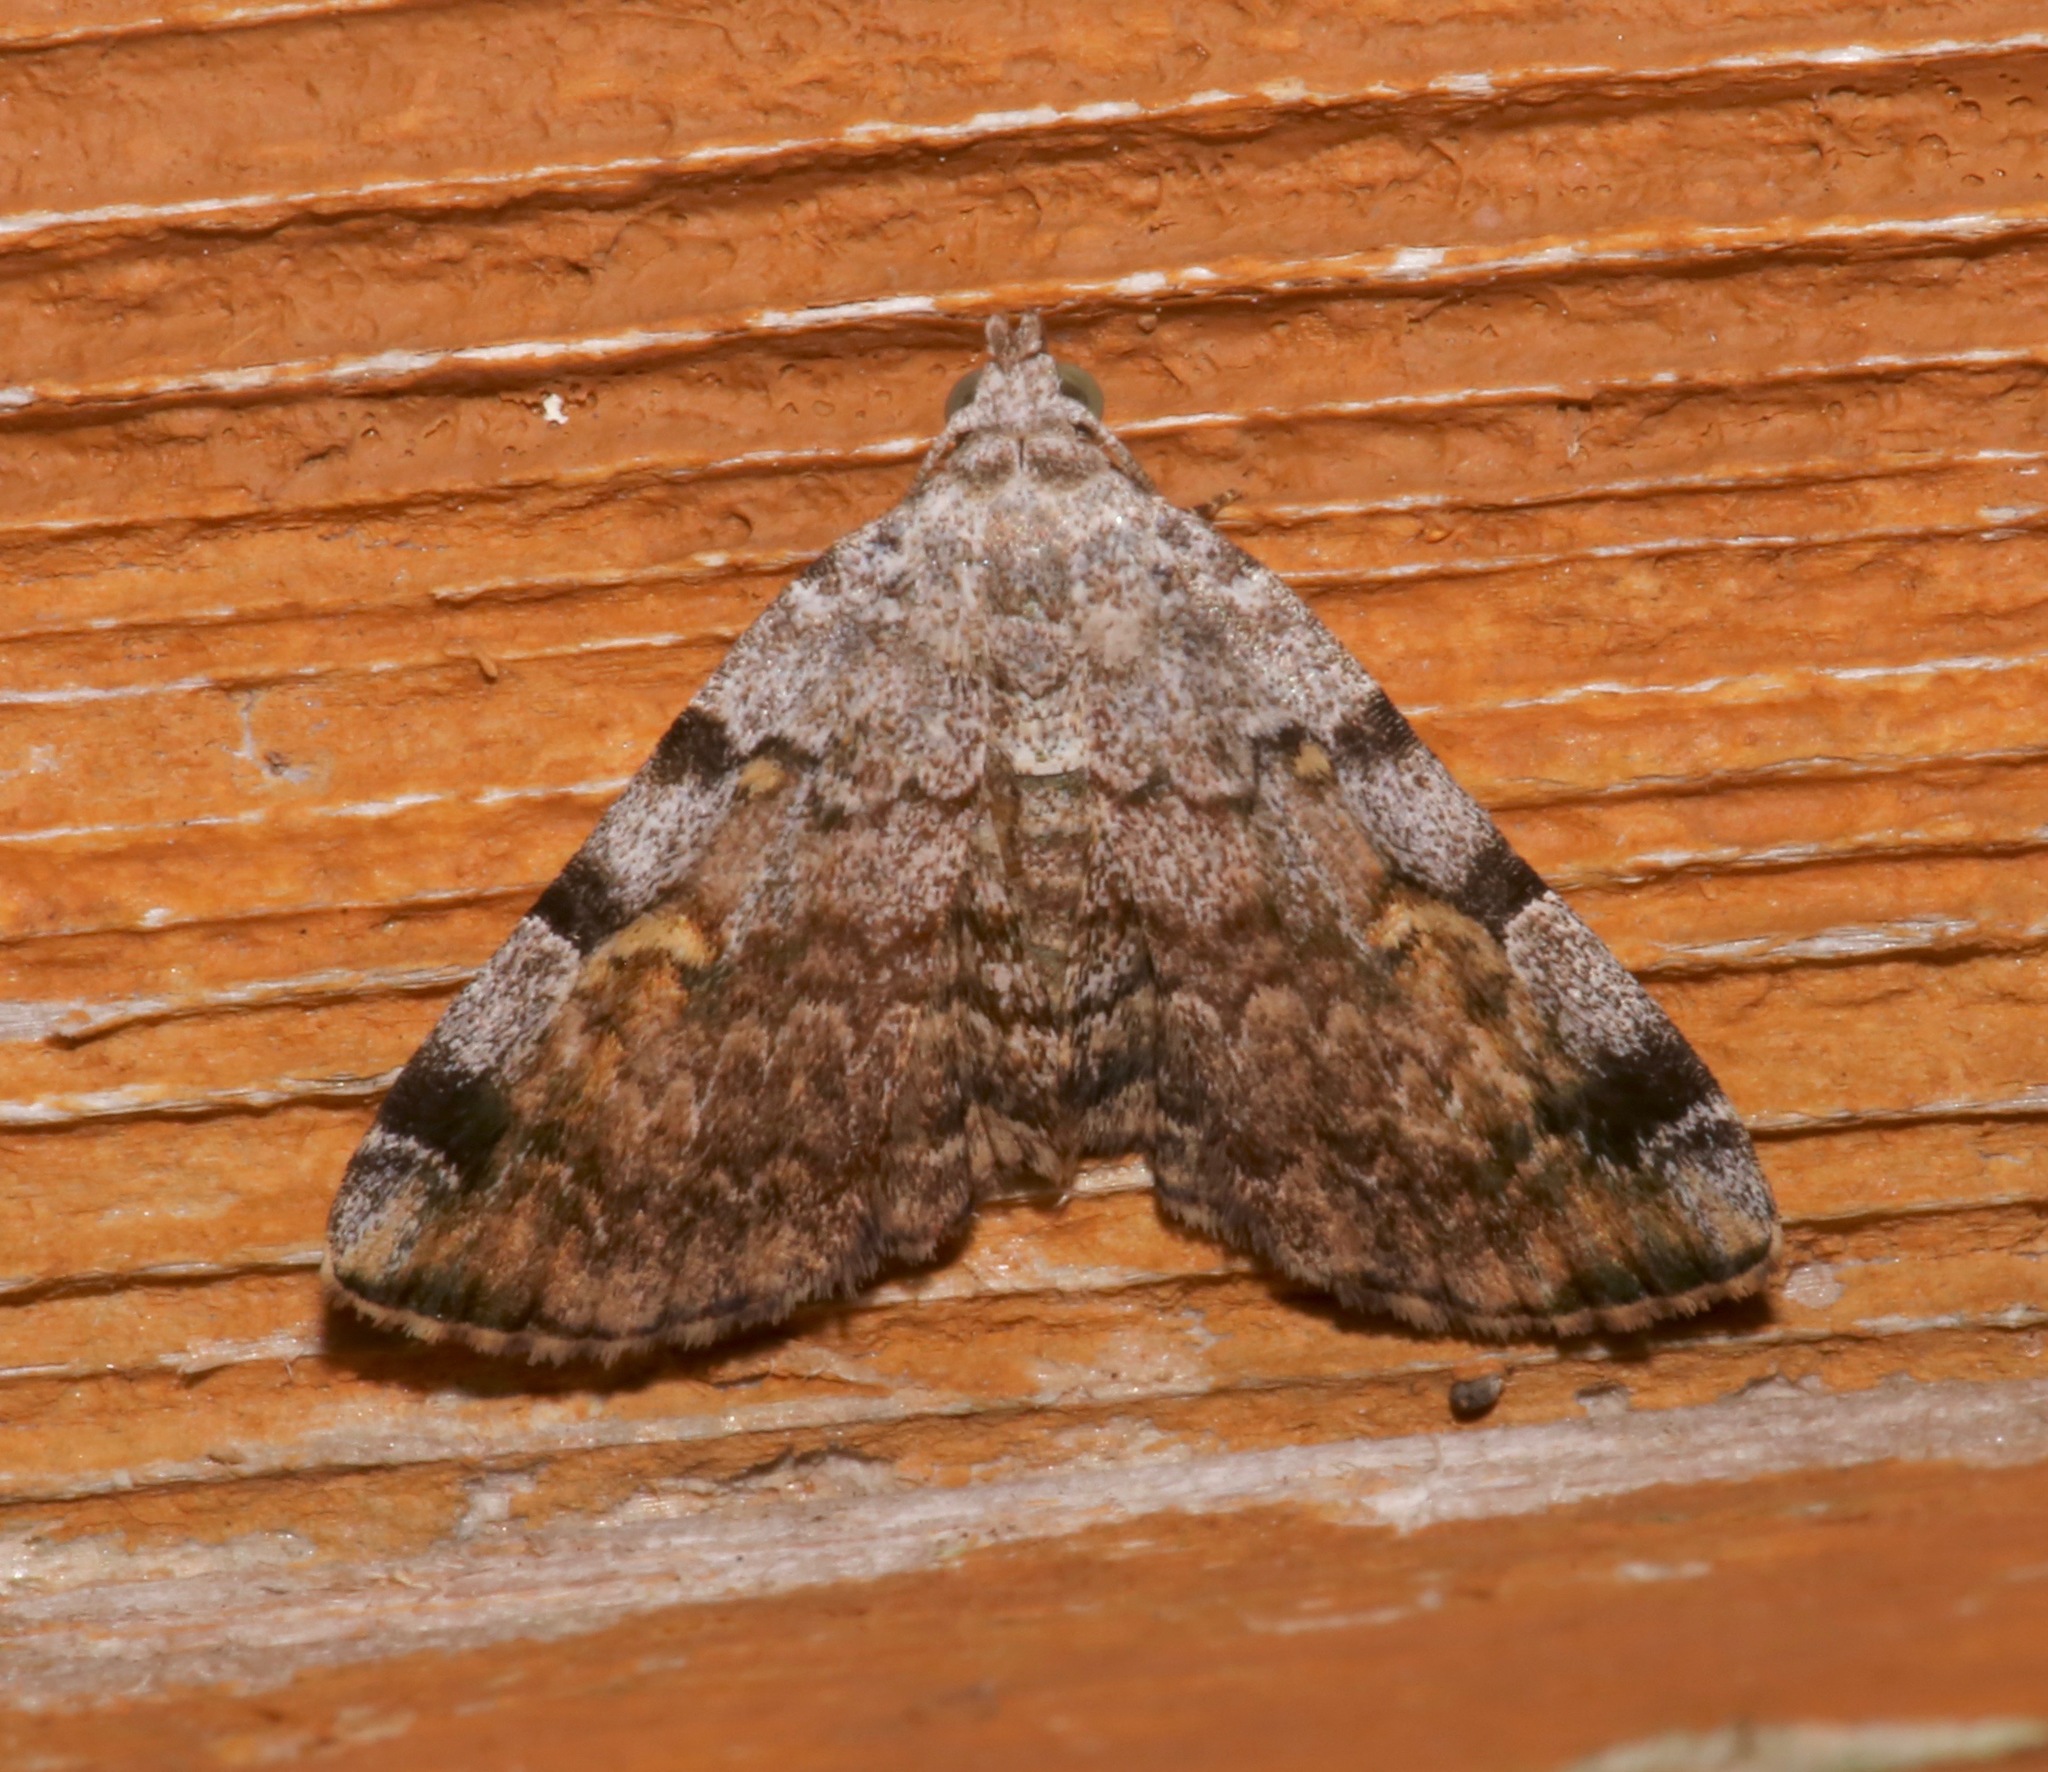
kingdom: Animalia
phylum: Arthropoda
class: Insecta
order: Lepidoptera
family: Erebidae
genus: Idia
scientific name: Idia americalis
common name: American idia moth
